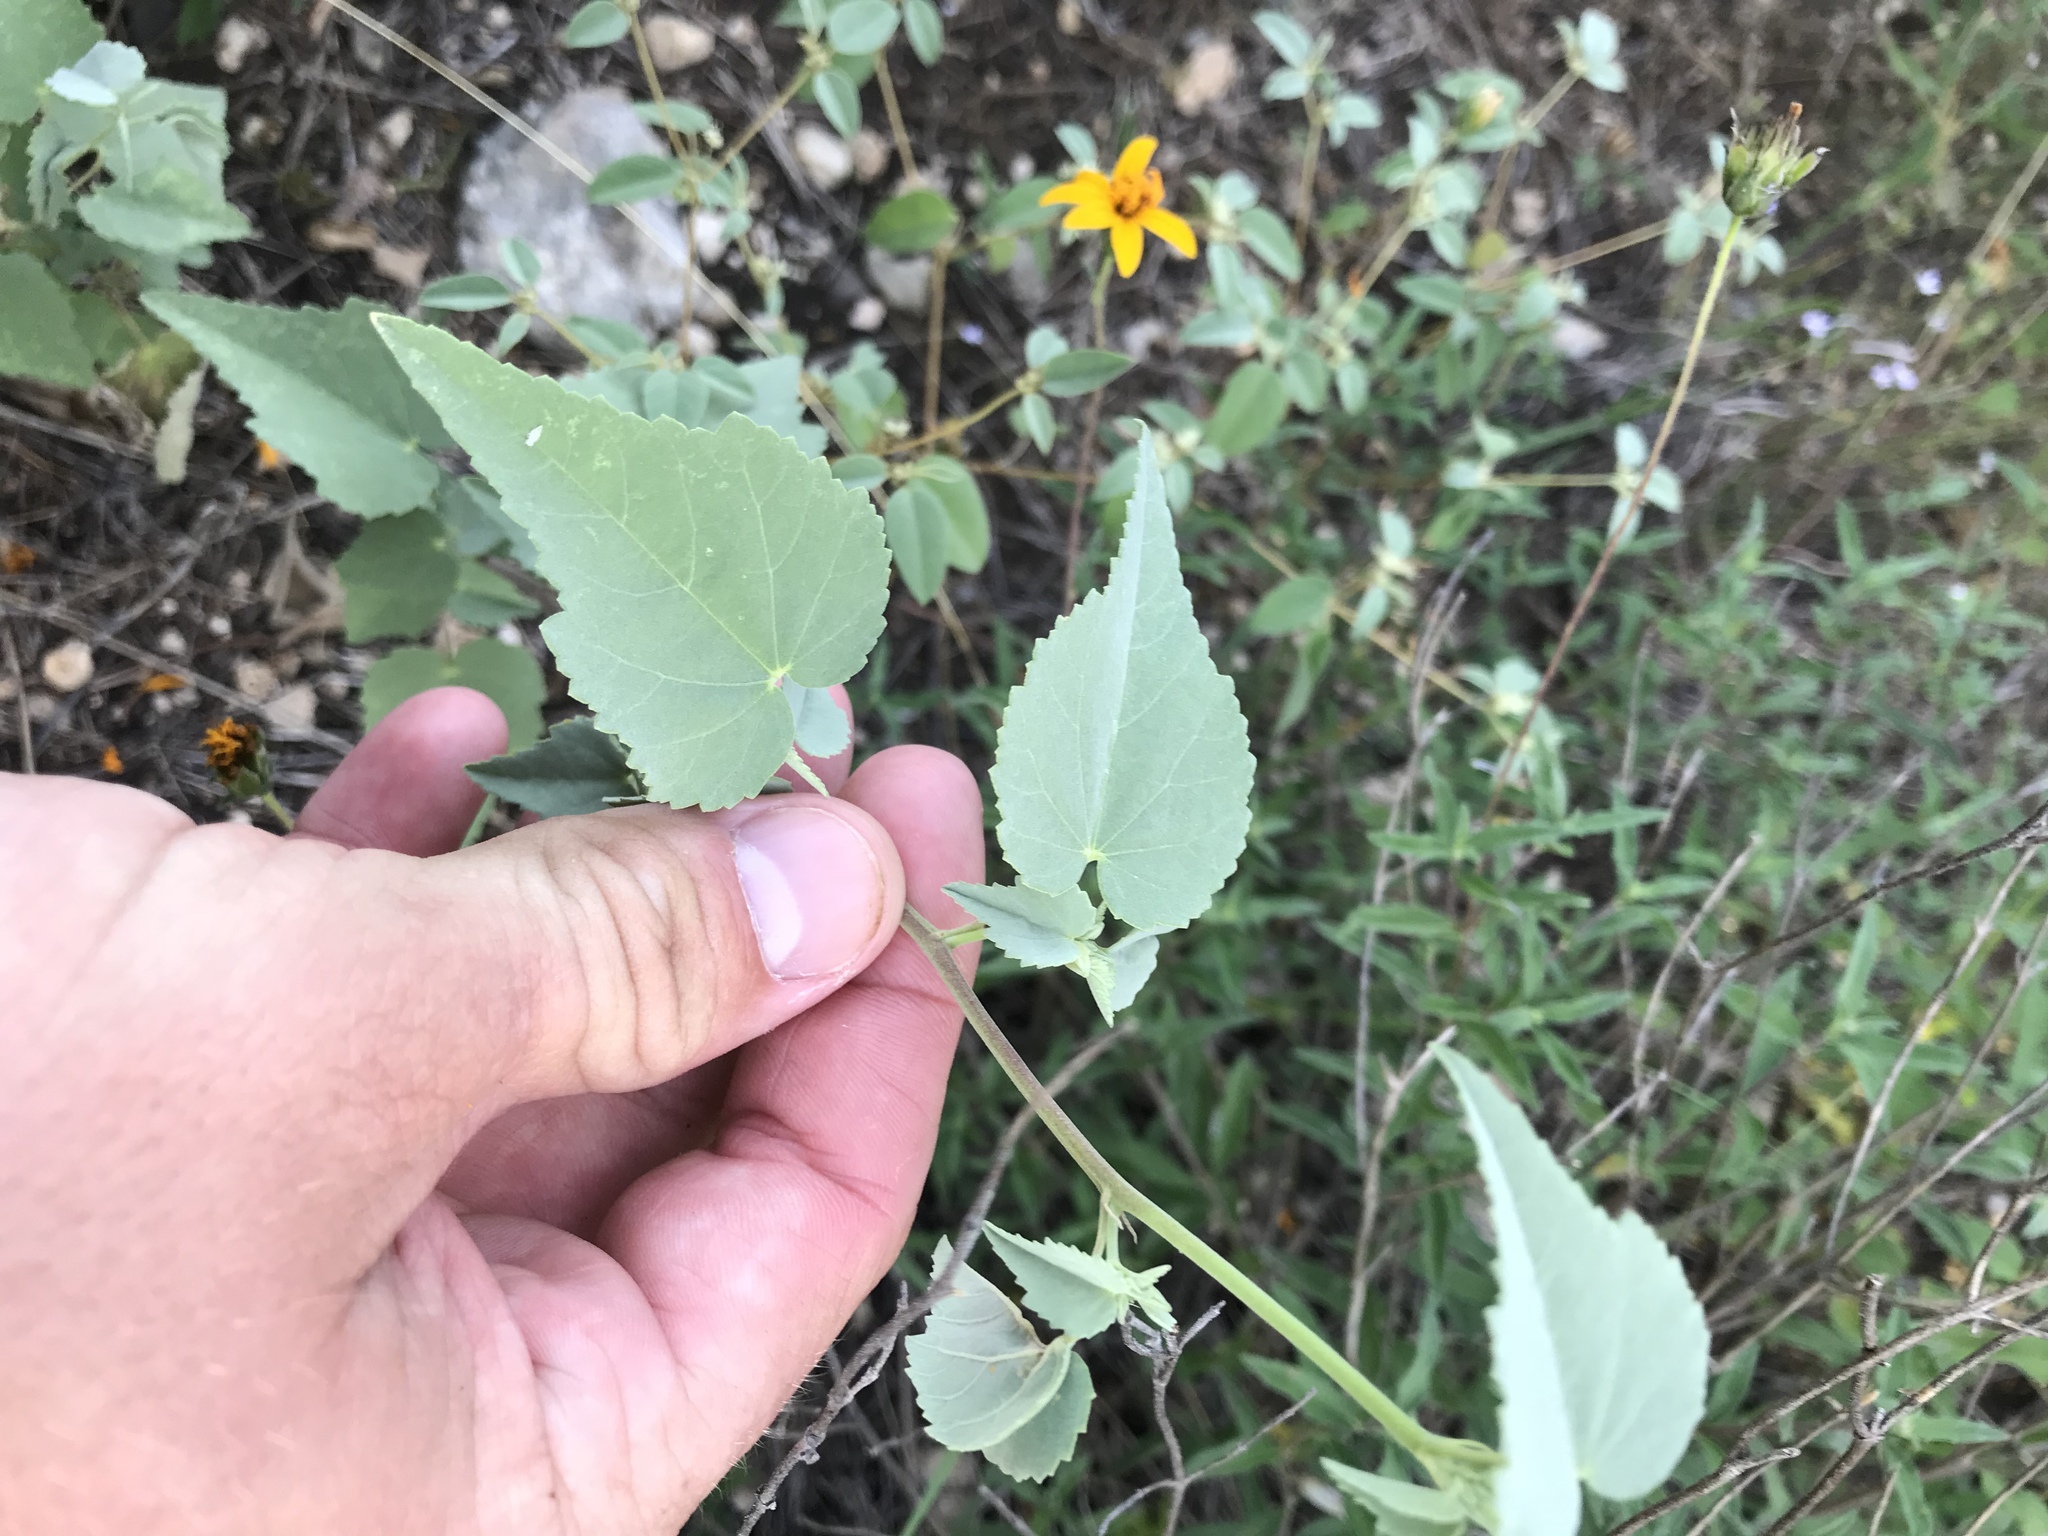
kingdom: Plantae
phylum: Tracheophyta
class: Magnoliopsida
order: Malvales
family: Malvaceae
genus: Abutilon
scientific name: Abutilon fruticosum
